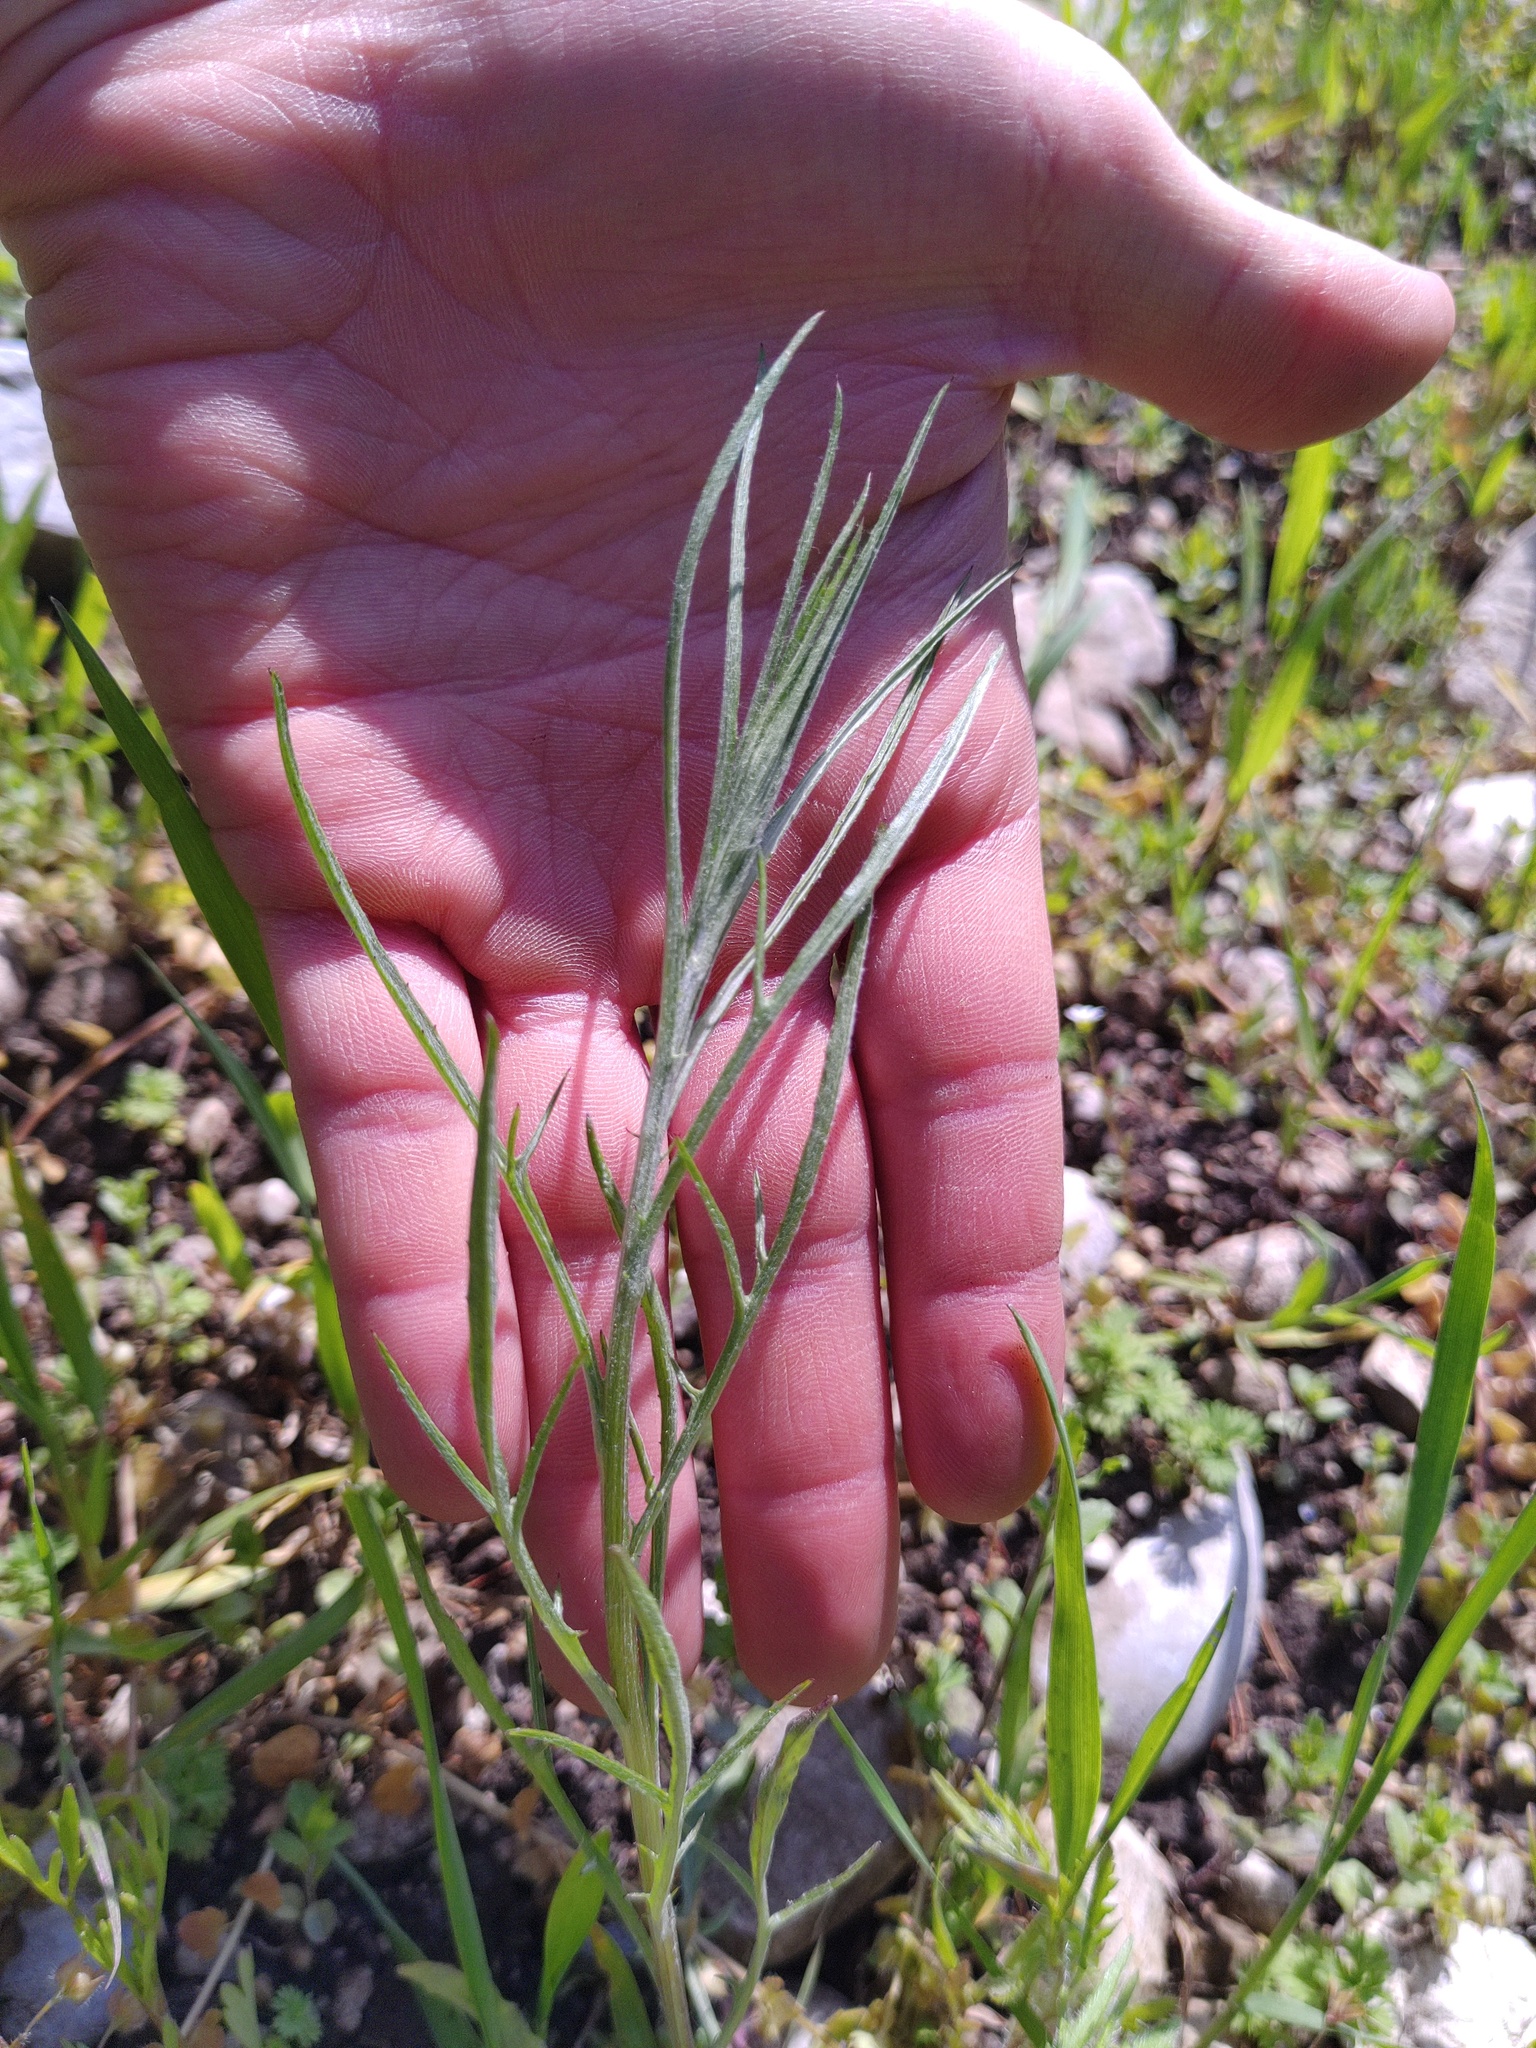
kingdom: Plantae
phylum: Tracheophyta
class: Magnoliopsida
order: Asterales
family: Asteraceae
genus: Centaurea
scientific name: Centaurea cyanus
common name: Cornflower
